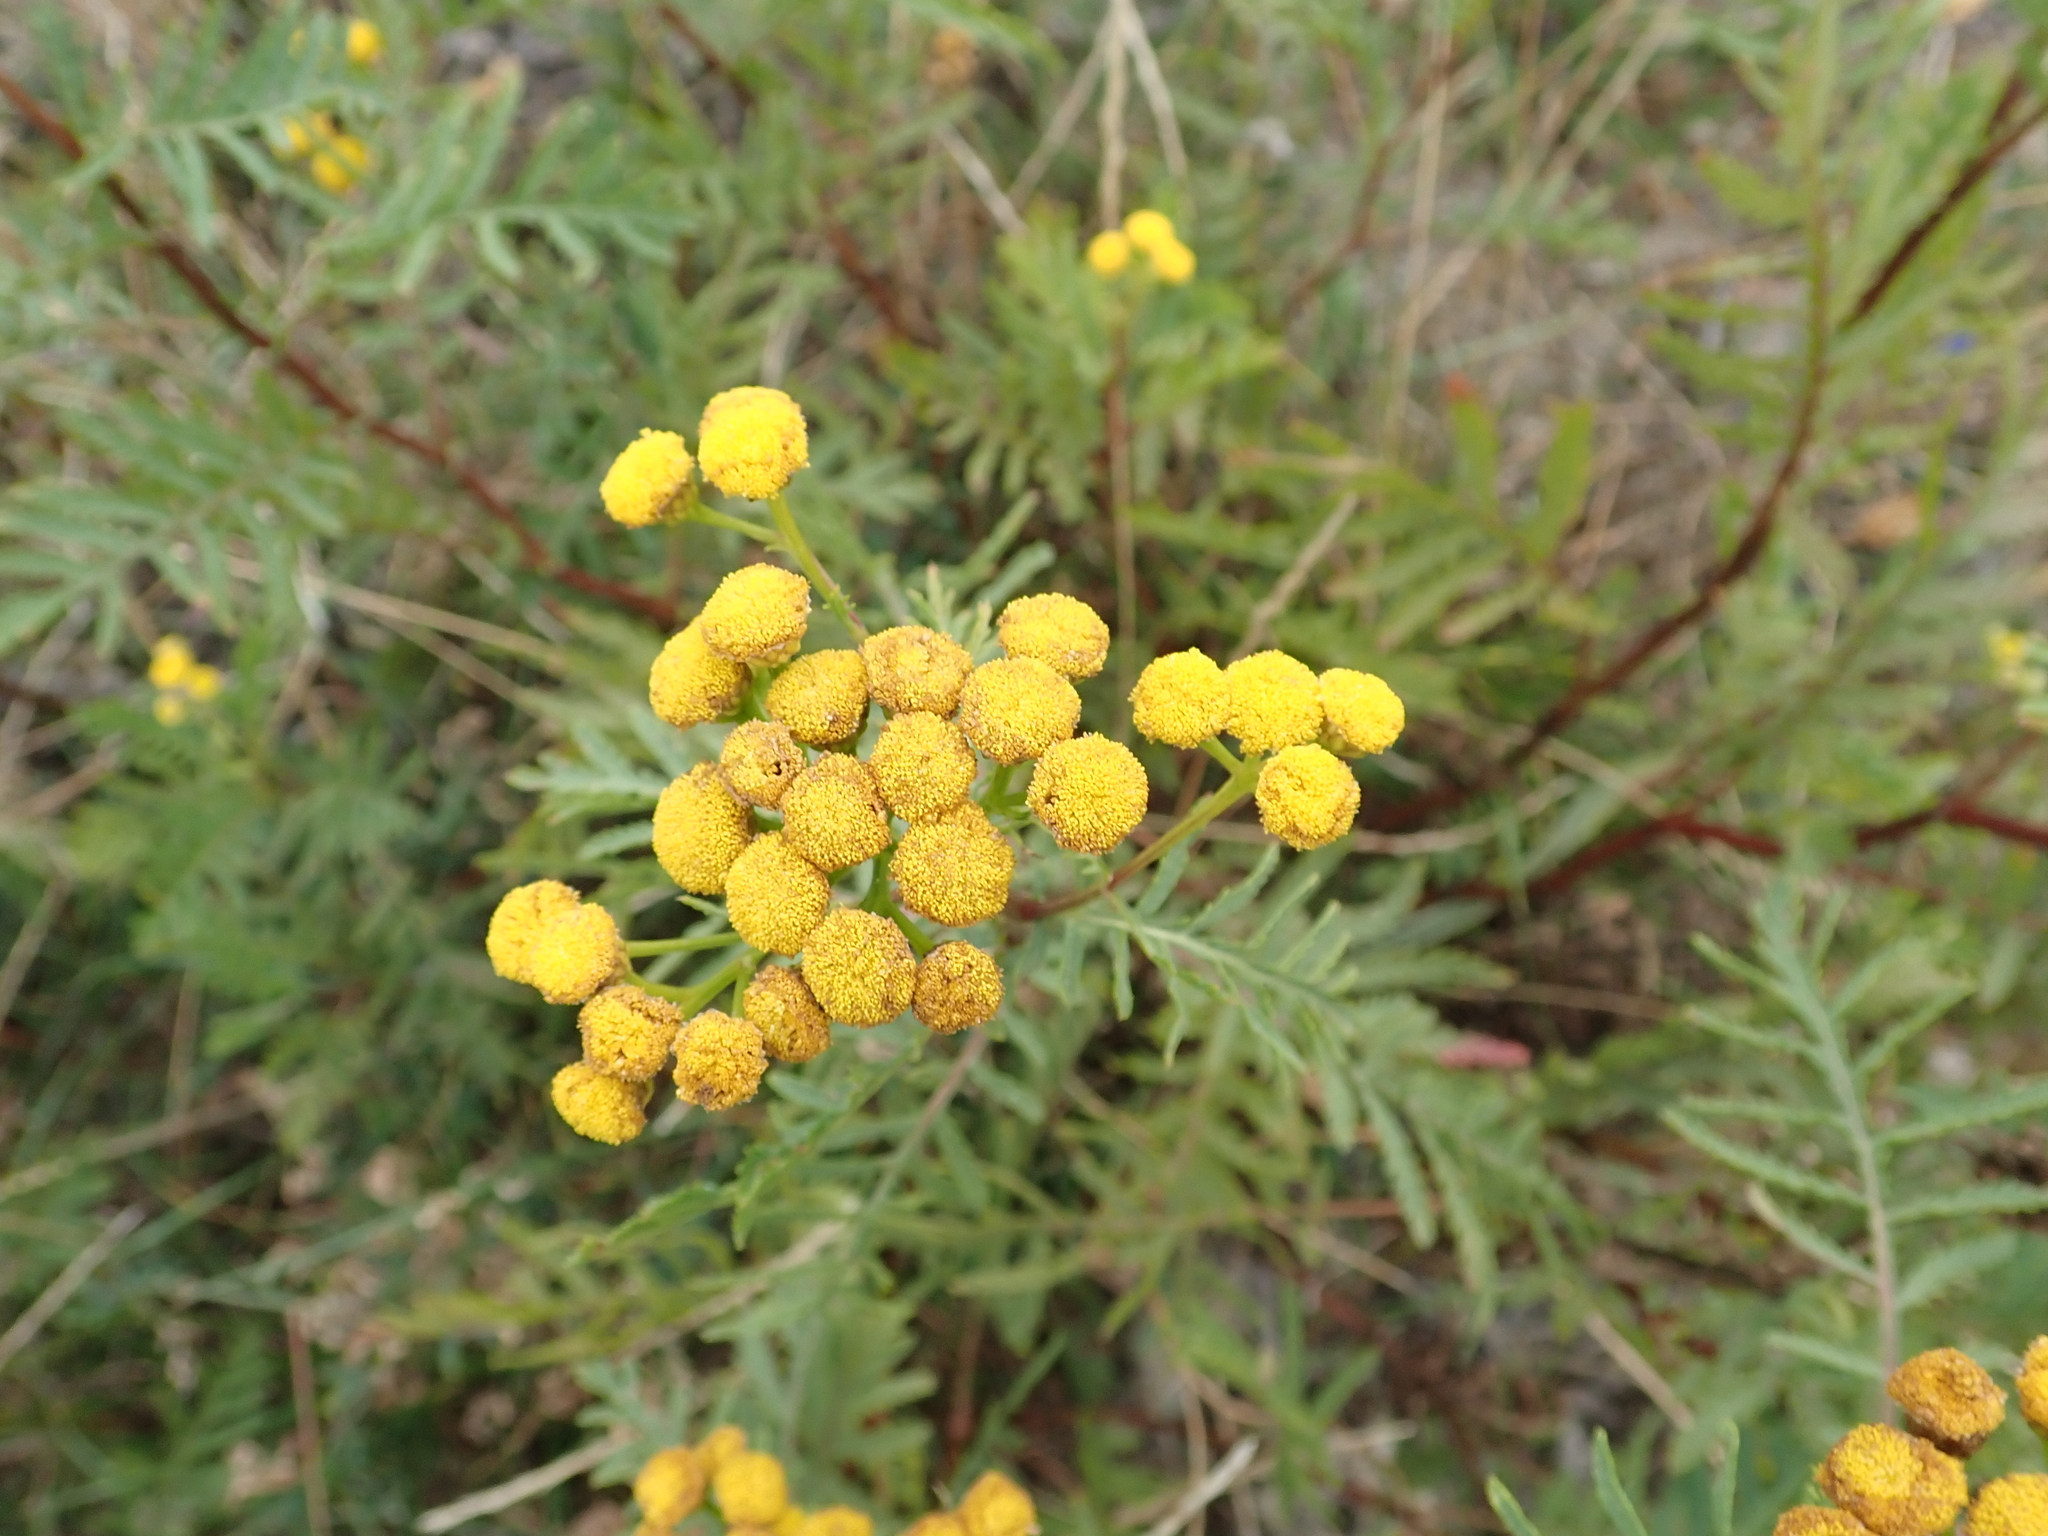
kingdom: Plantae
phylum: Tracheophyta
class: Magnoliopsida
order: Asterales
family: Asteraceae
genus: Tanacetum
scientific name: Tanacetum vulgare
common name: Common tansy
